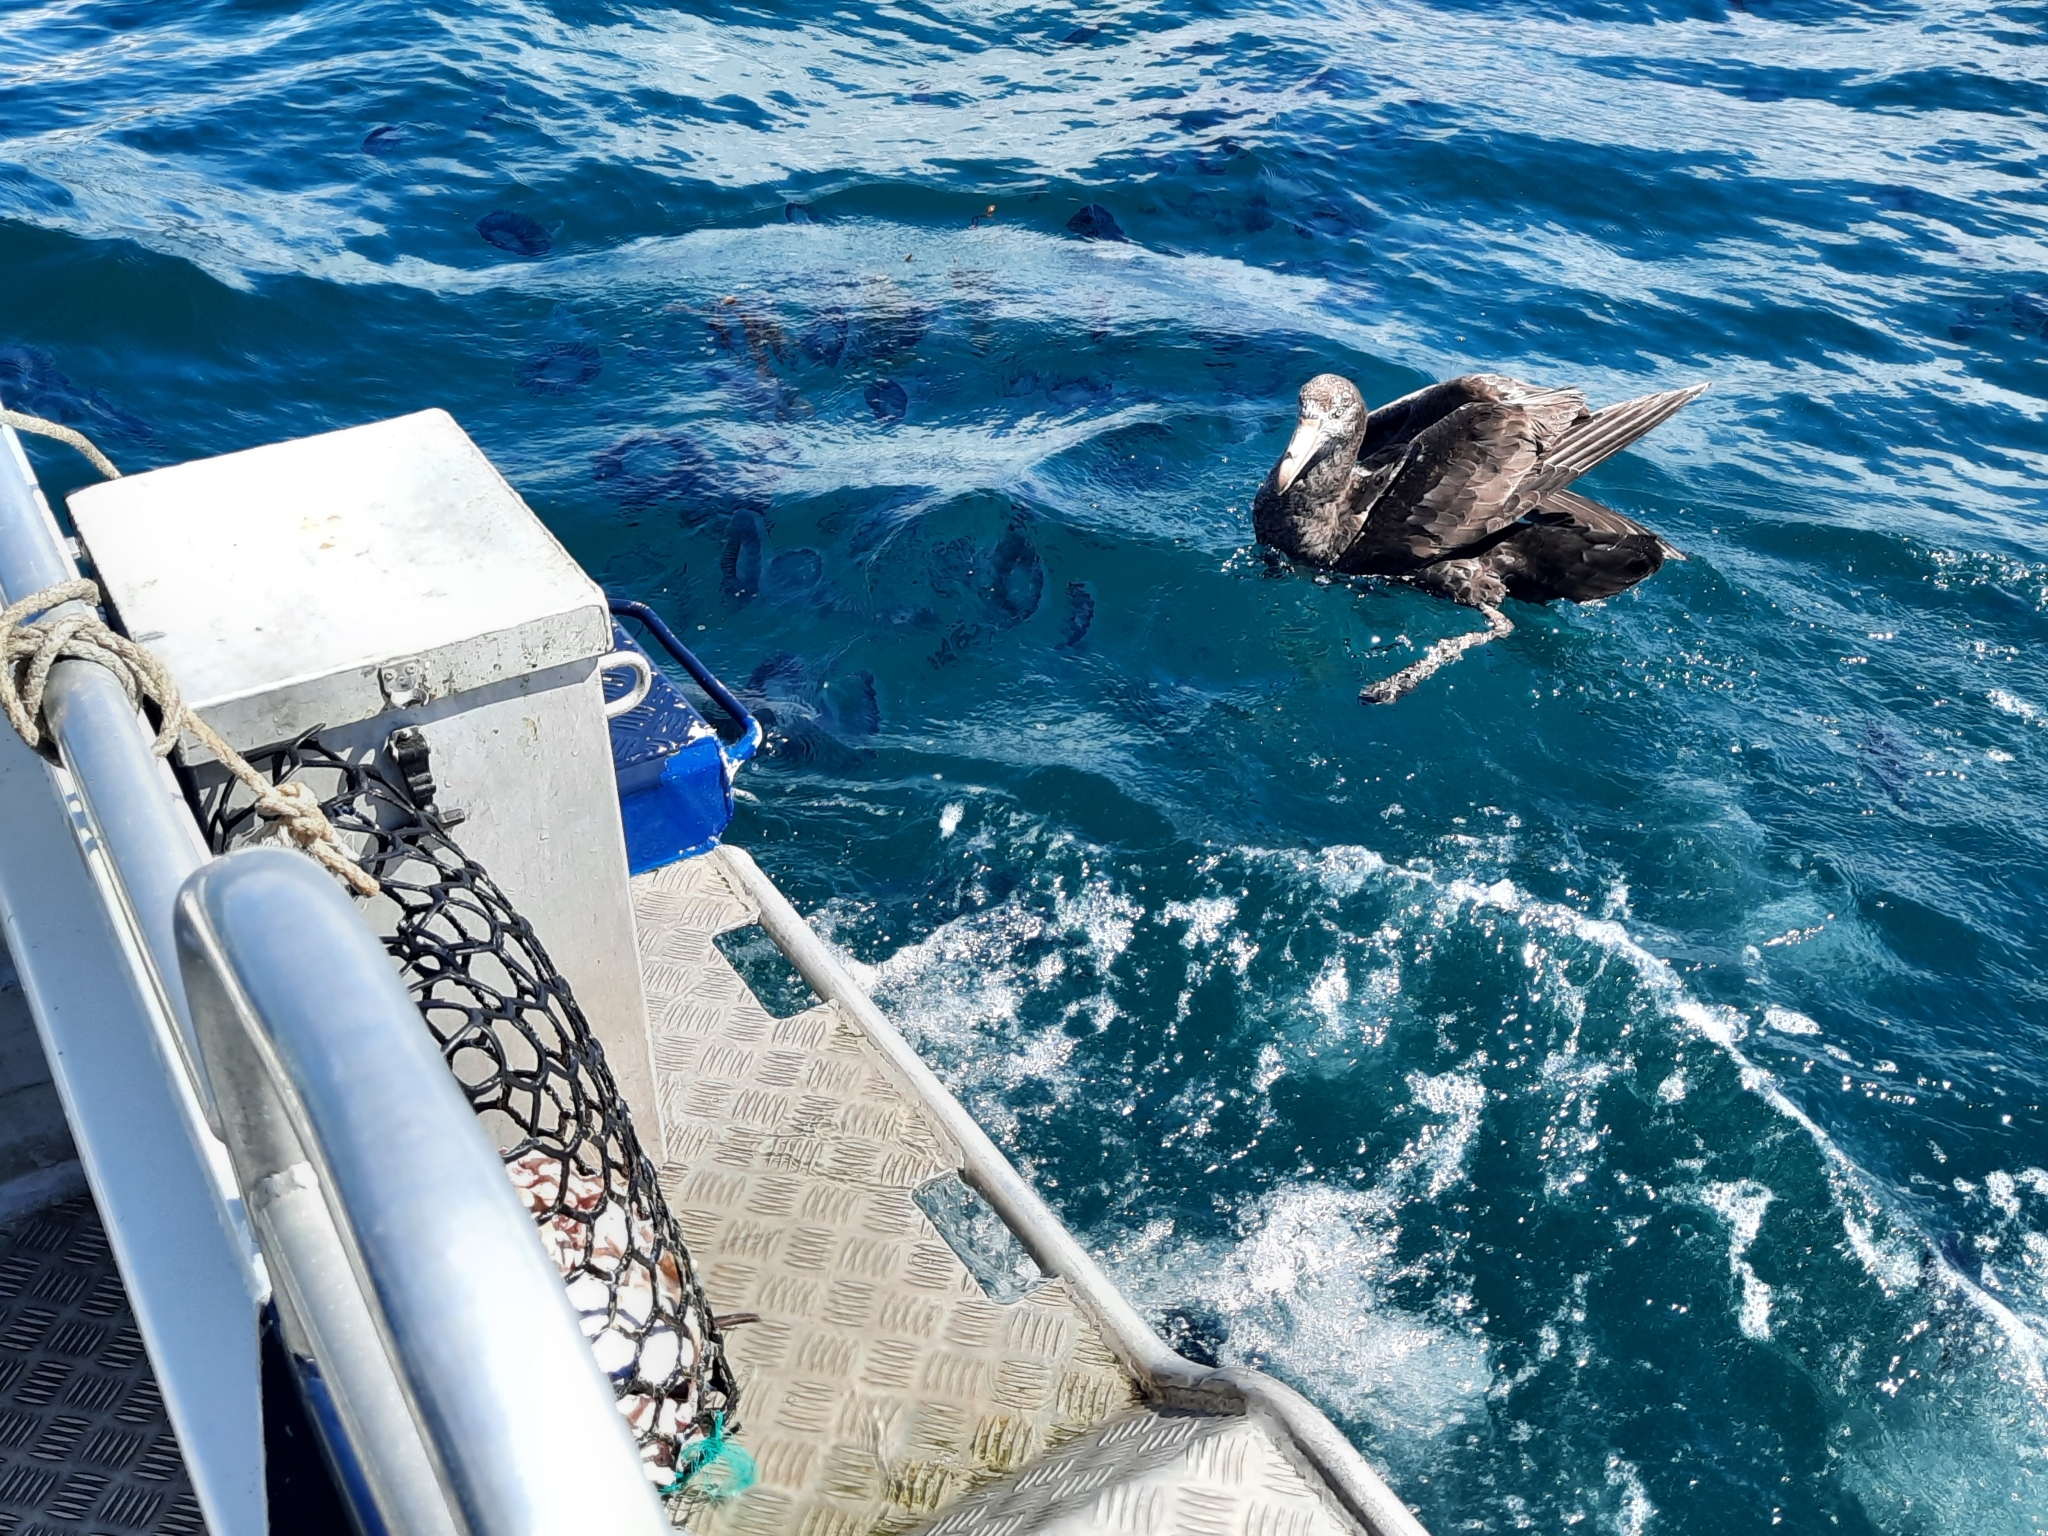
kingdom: Animalia
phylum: Chordata
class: Aves
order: Procellariiformes
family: Procellariidae
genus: Macronectes
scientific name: Macronectes halli
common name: Northern giant petrel
